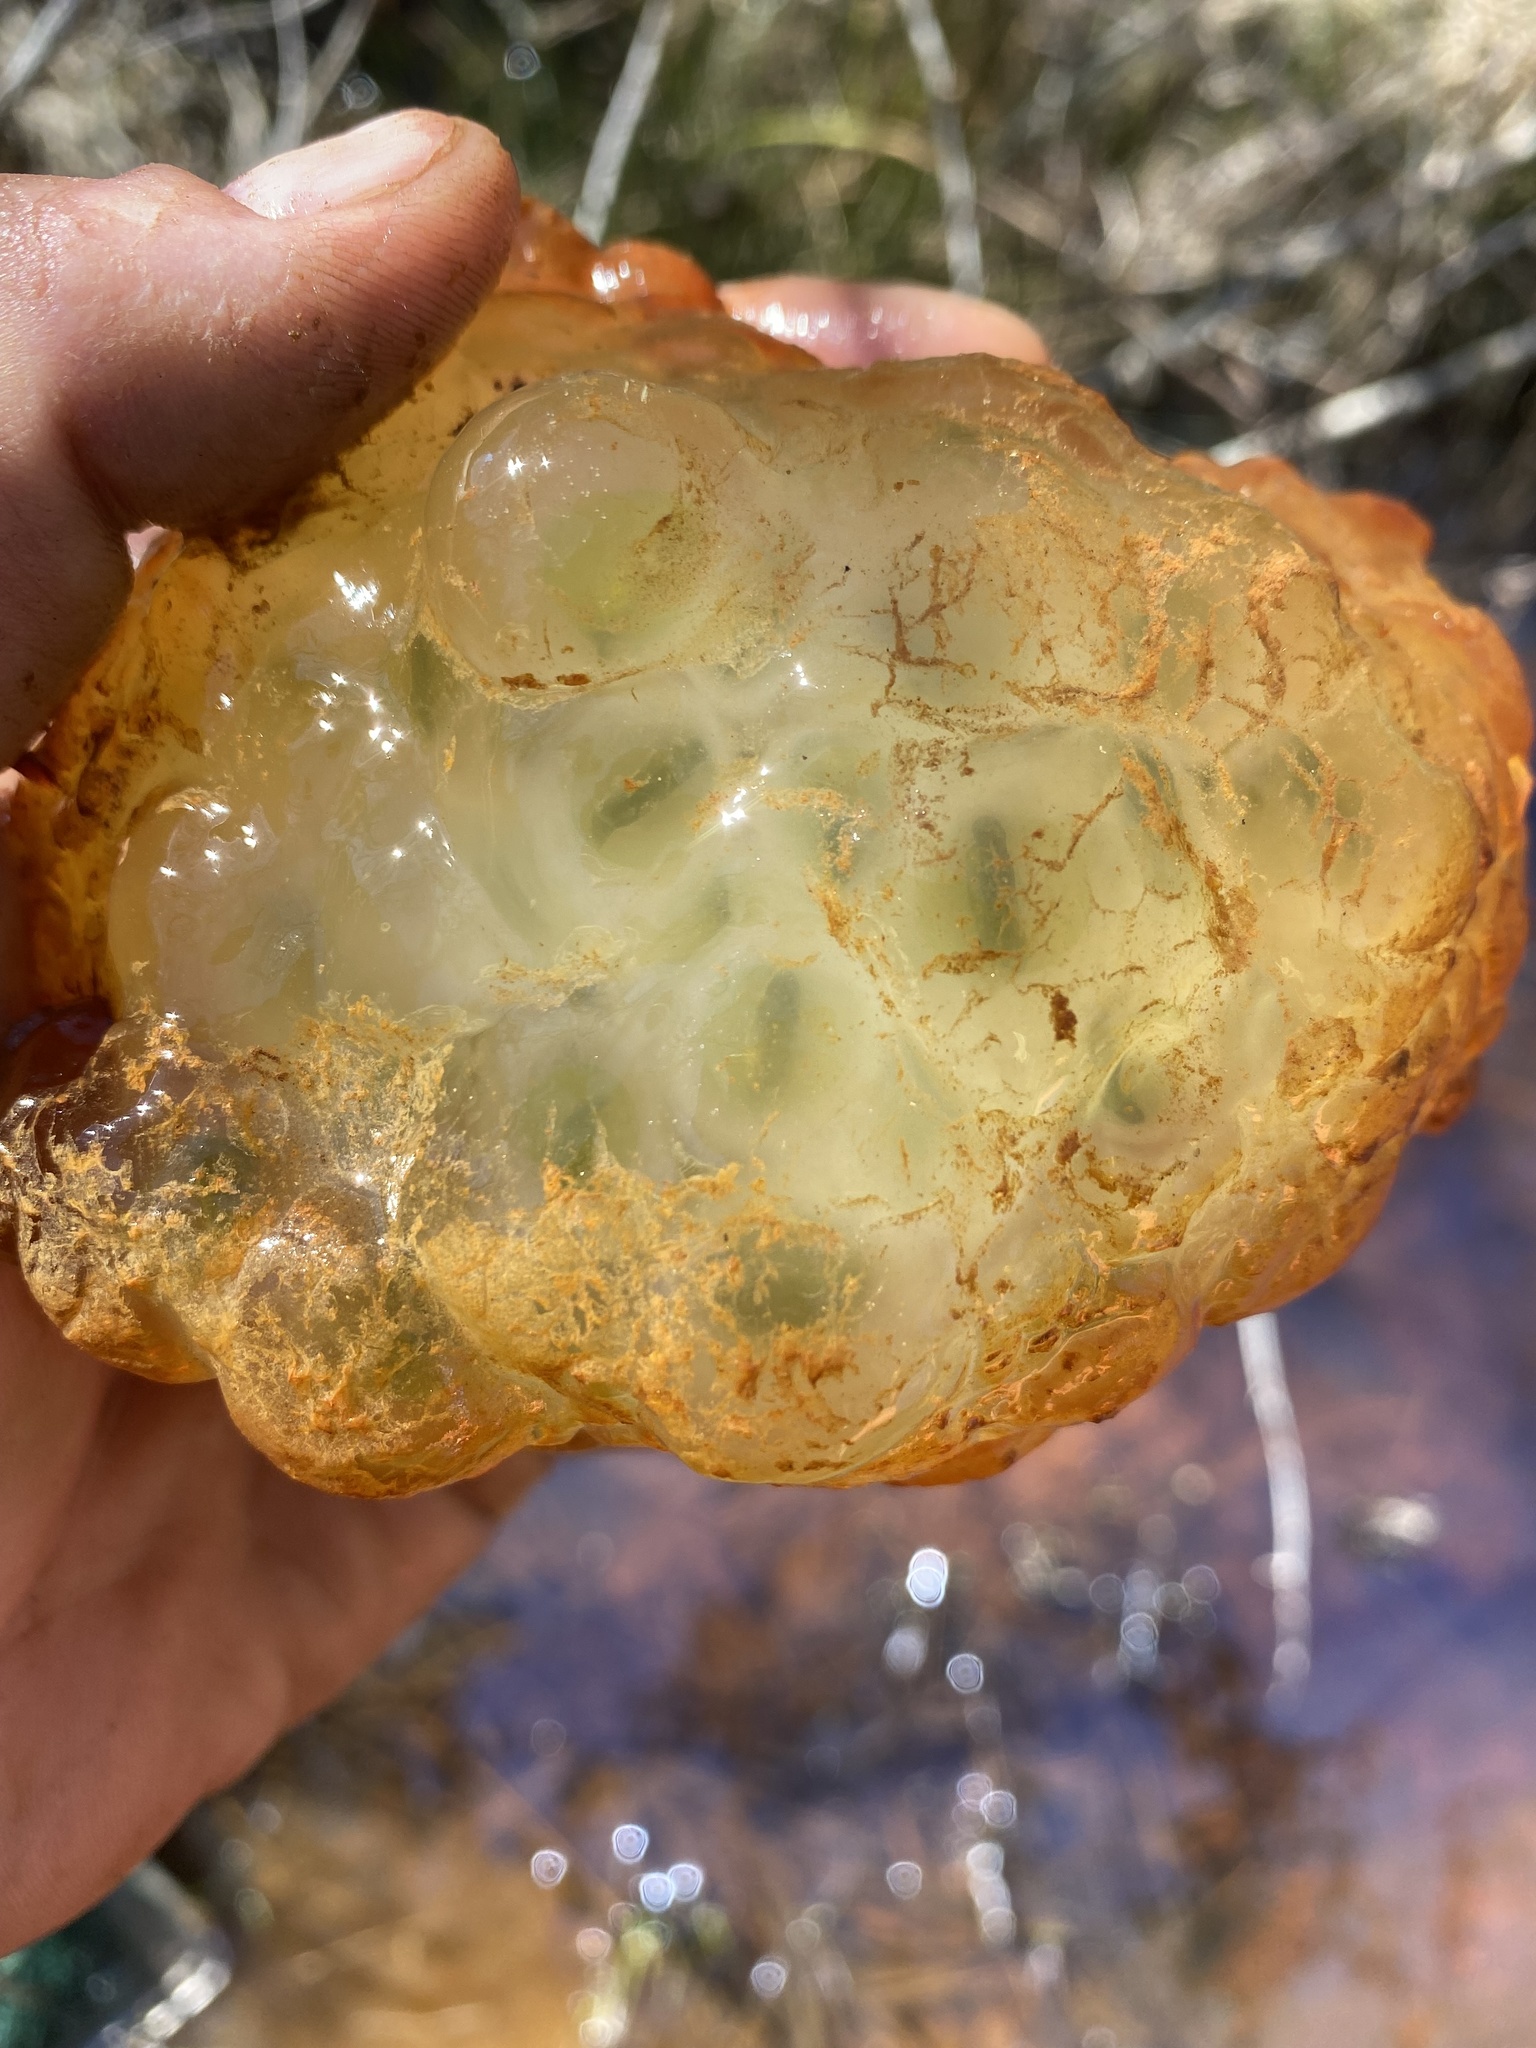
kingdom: Animalia
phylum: Chordata
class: Amphibia
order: Caudata
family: Ambystomatidae
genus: Ambystoma
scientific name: Ambystoma maculatum
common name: Spotted salamander
